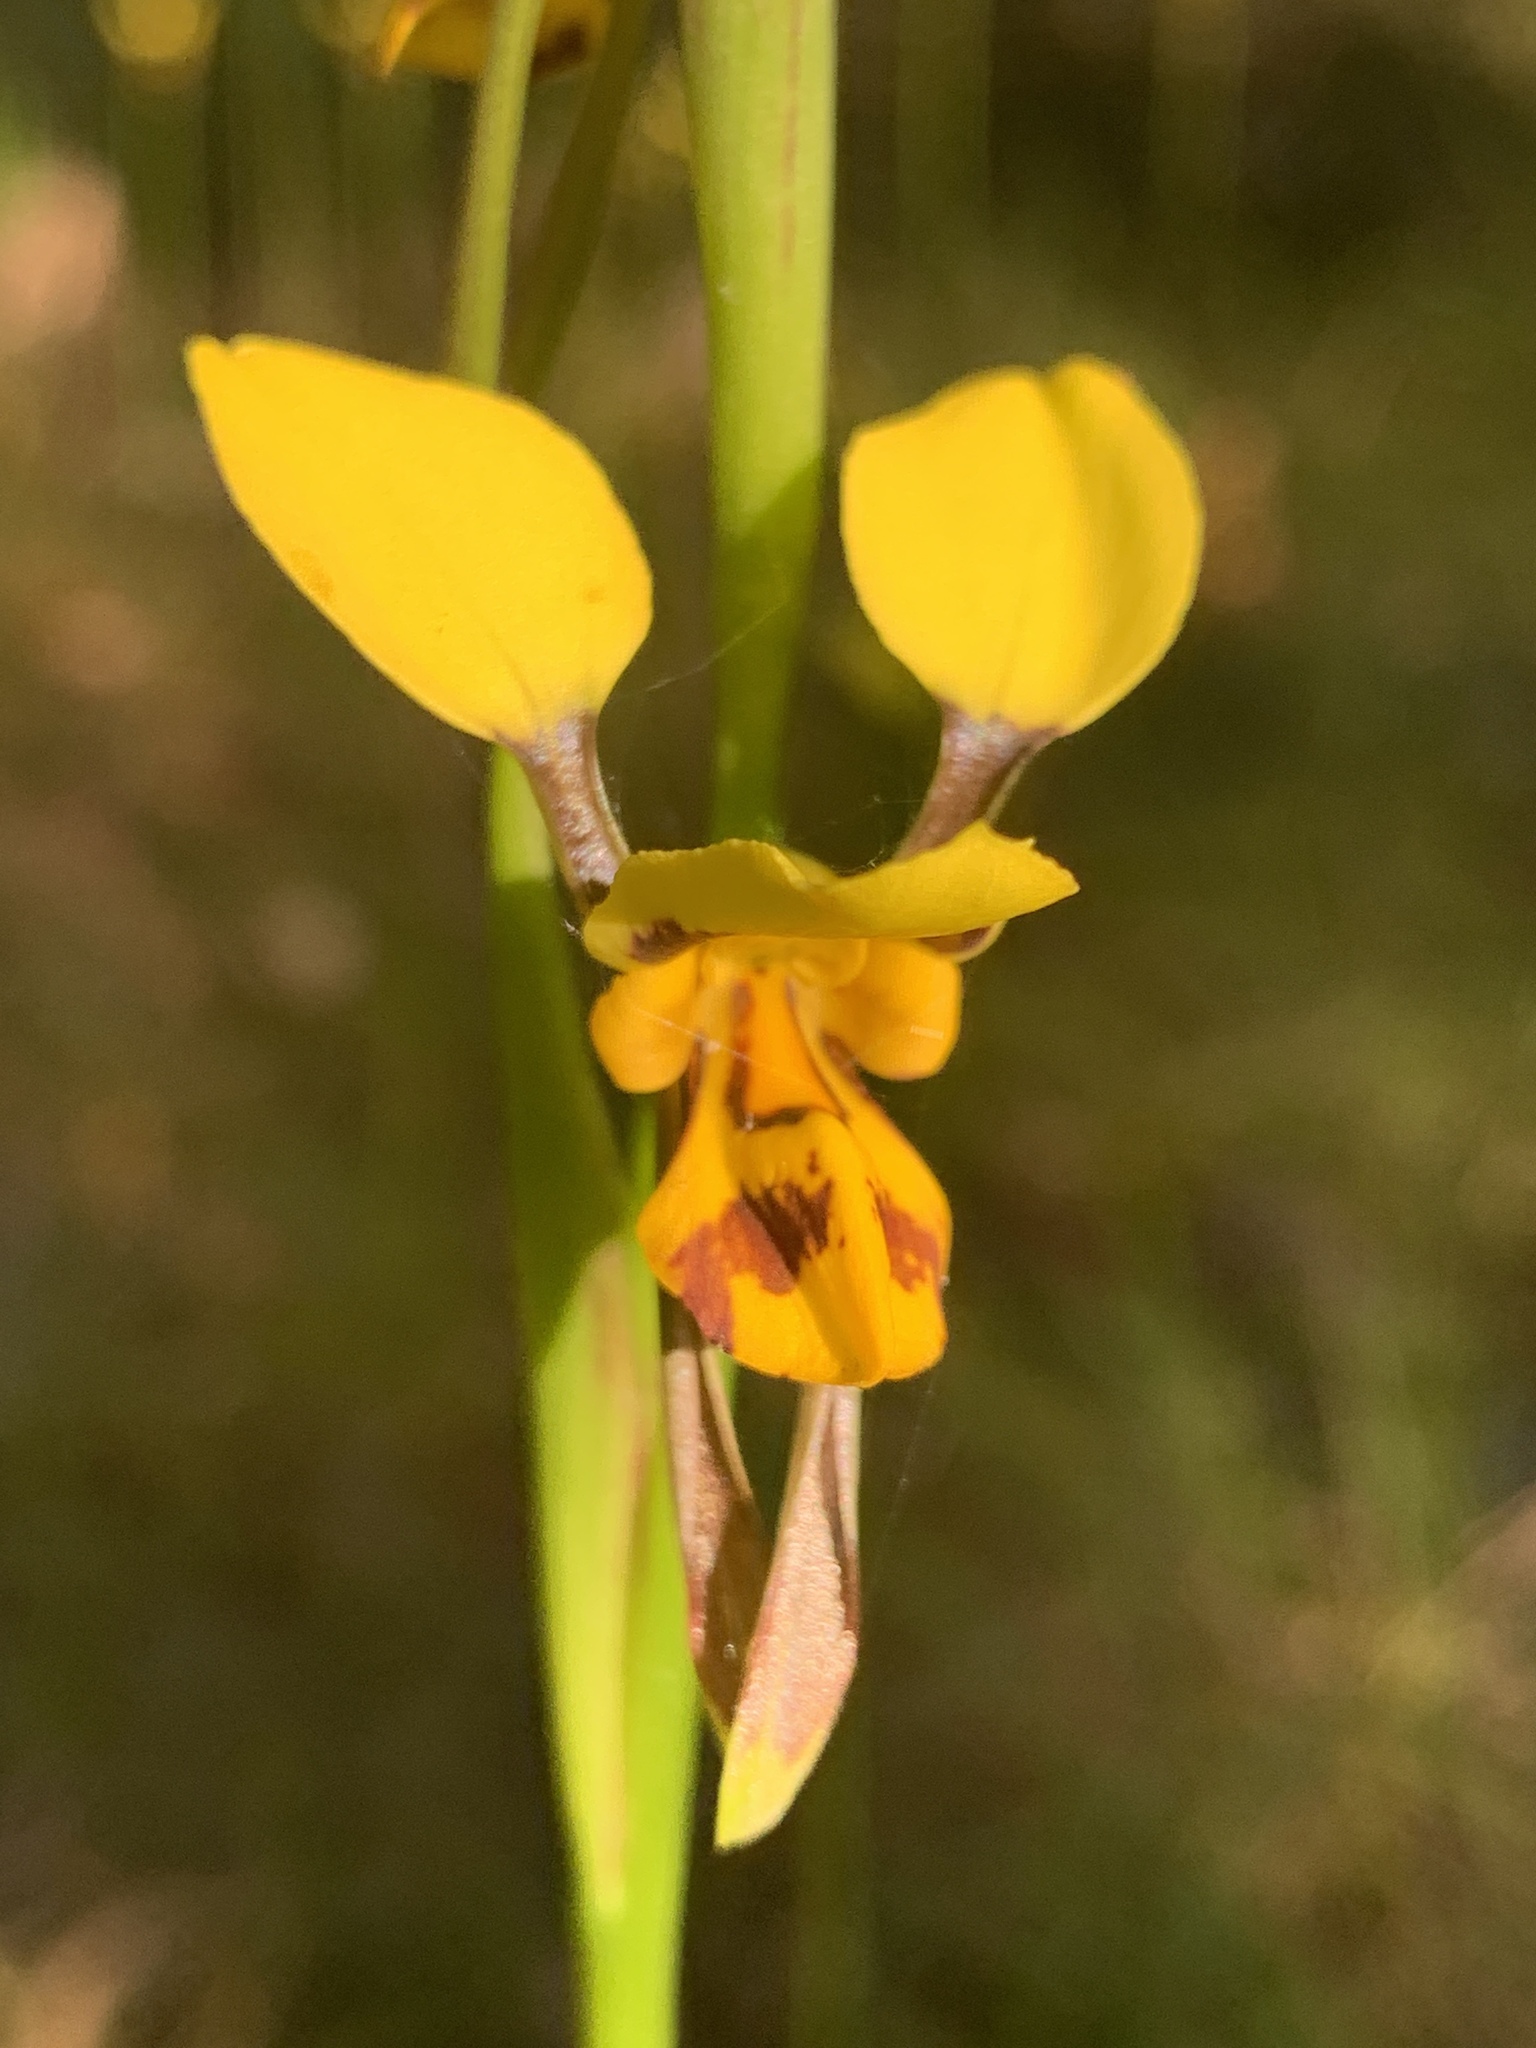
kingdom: Plantae
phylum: Tracheophyta
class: Liliopsida
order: Asparagales
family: Orchidaceae
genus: Diuris
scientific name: Diuris sulphurea
